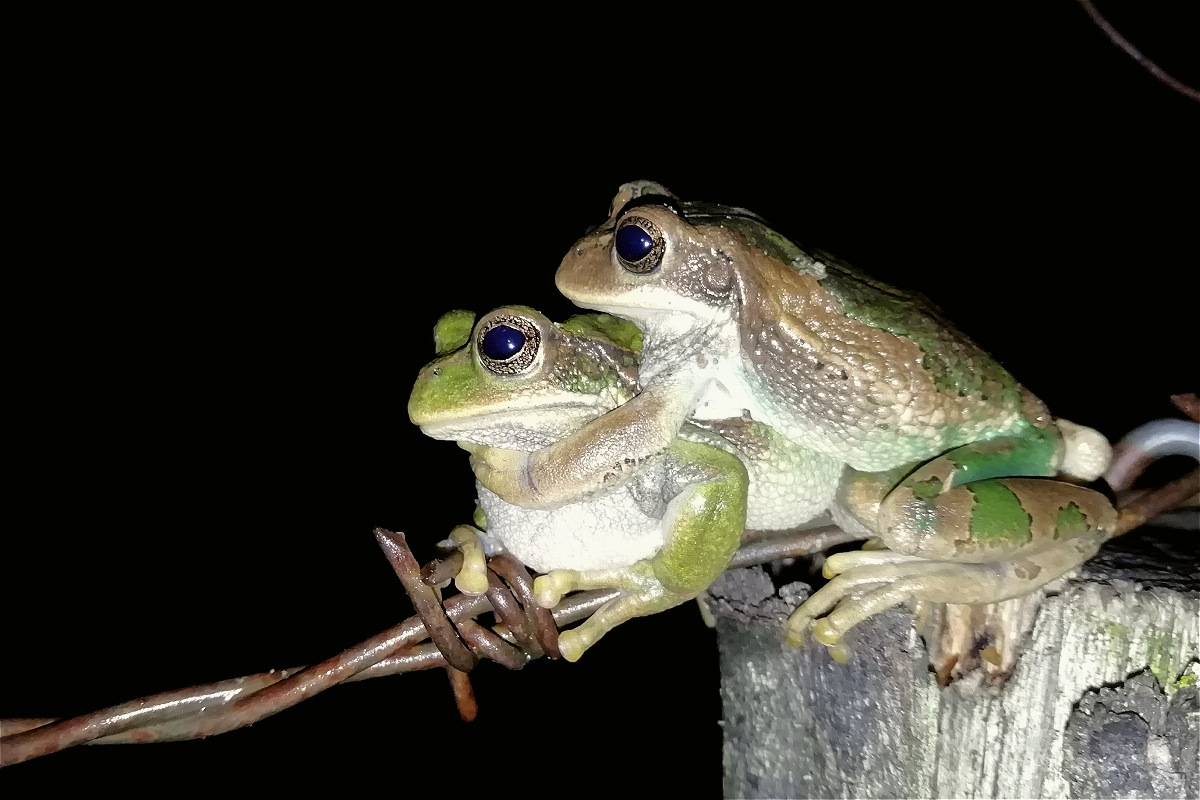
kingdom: Animalia
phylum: Chordata
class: Amphibia
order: Anura
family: Hemiphractidae
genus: Gastrotheca
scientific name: Gastrotheca cuencana
